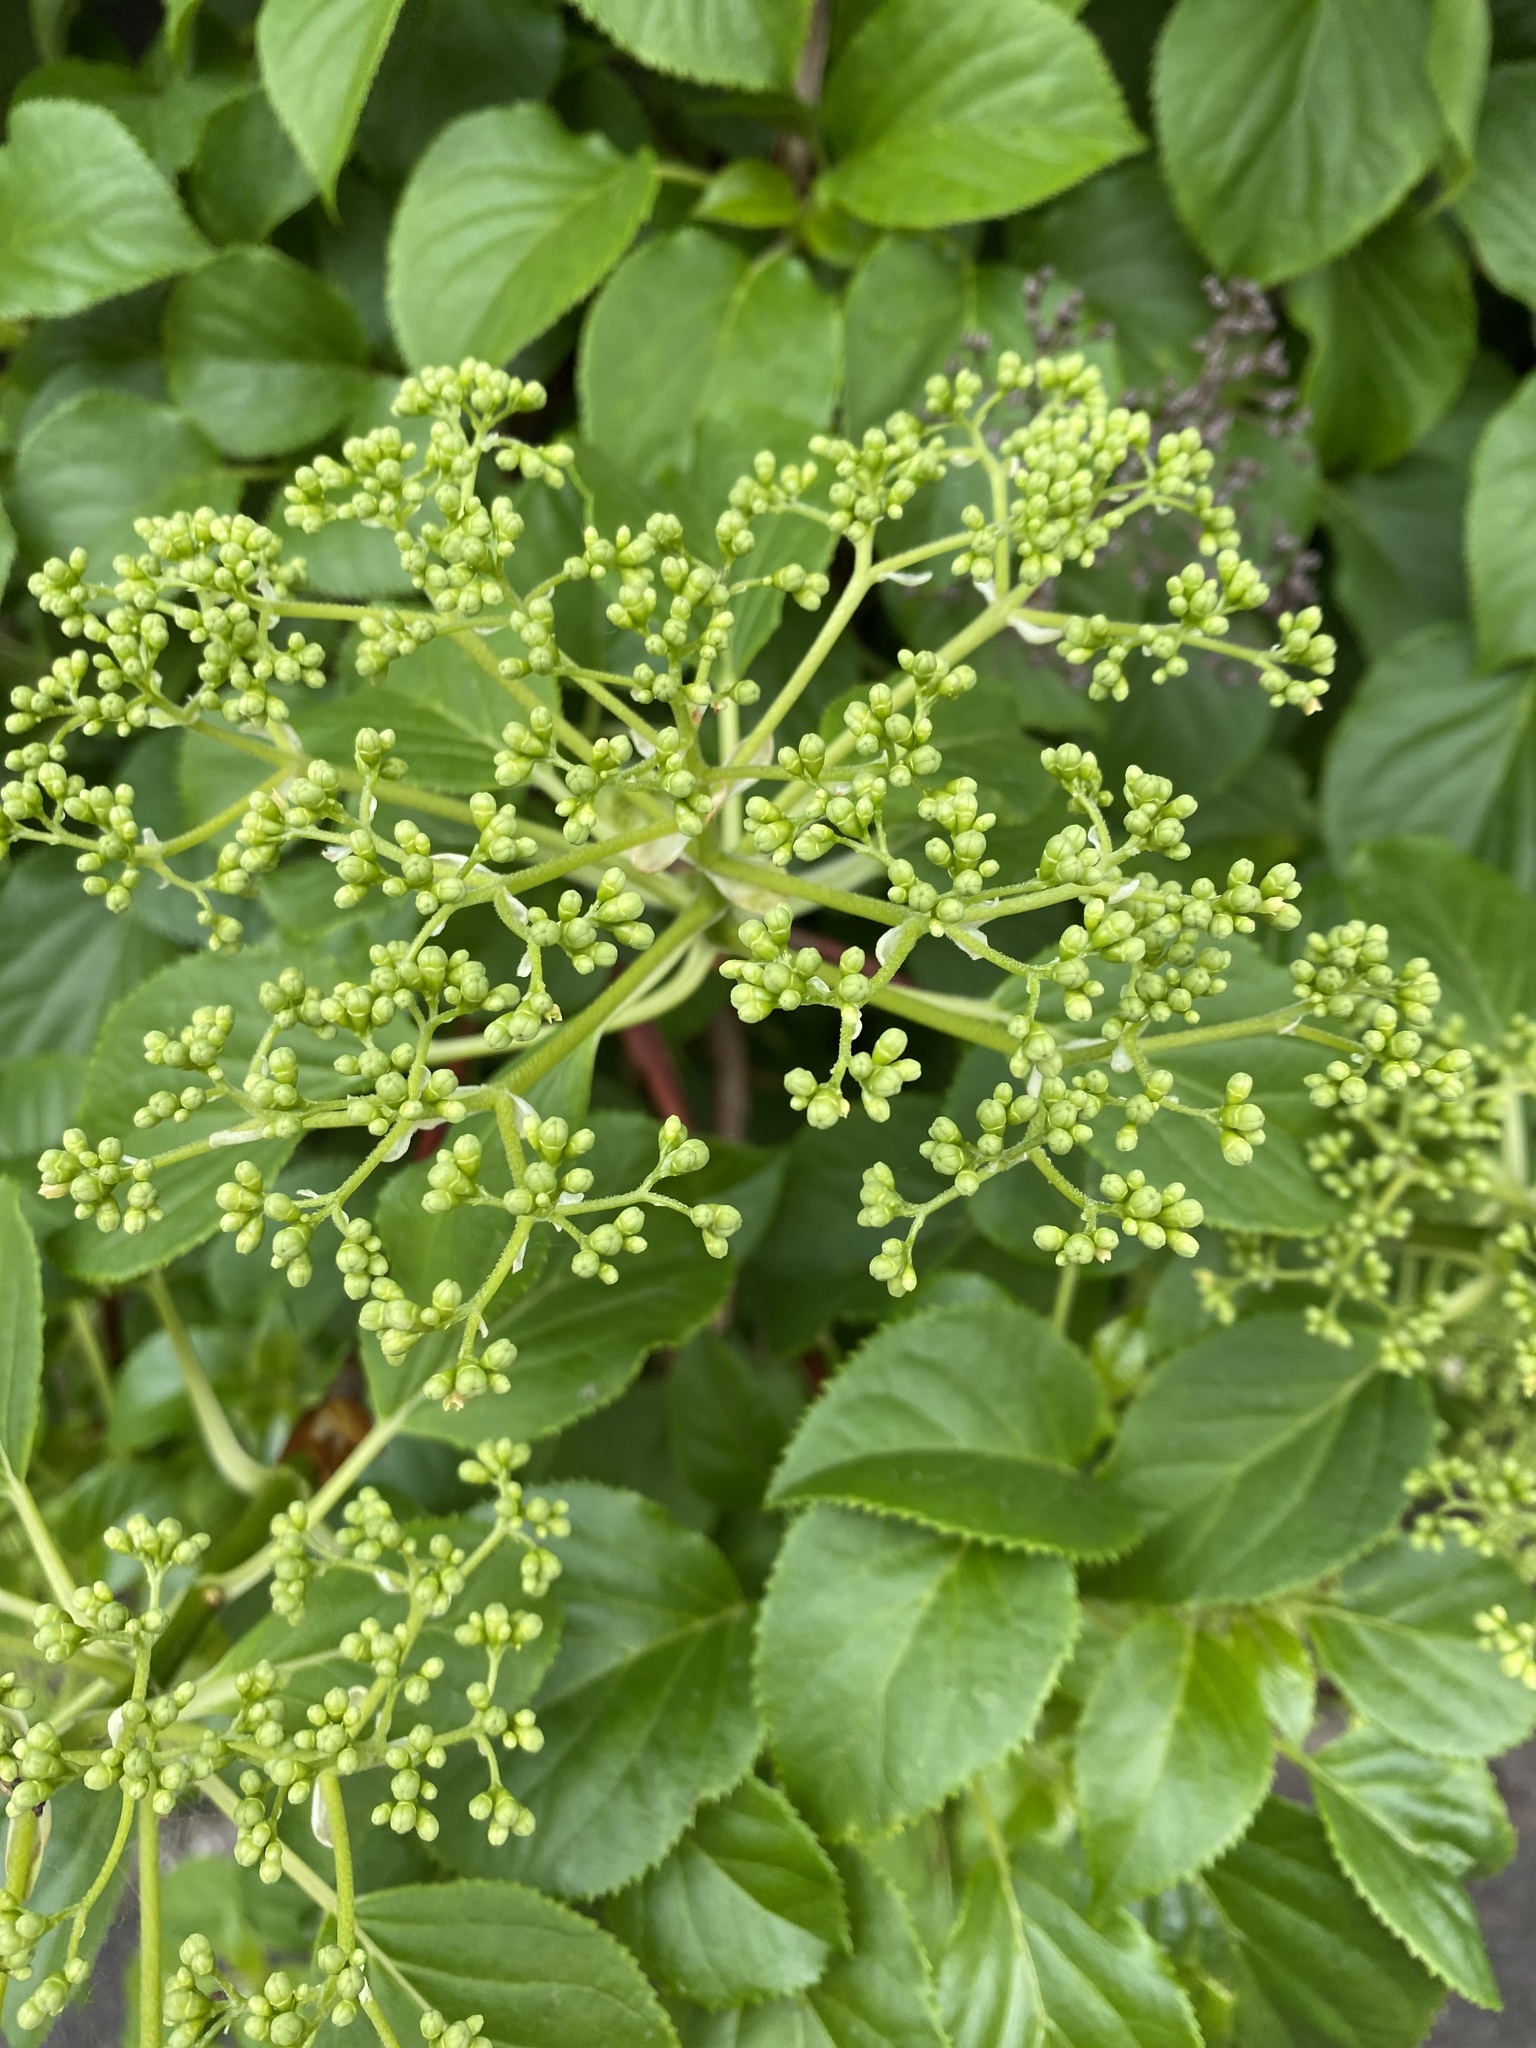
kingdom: Plantae
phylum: Tracheophyta
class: Magnoliopsida
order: Dipsacales
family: Viburnaceae
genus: Sambucus
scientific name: Sambucus nigra
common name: Elder
